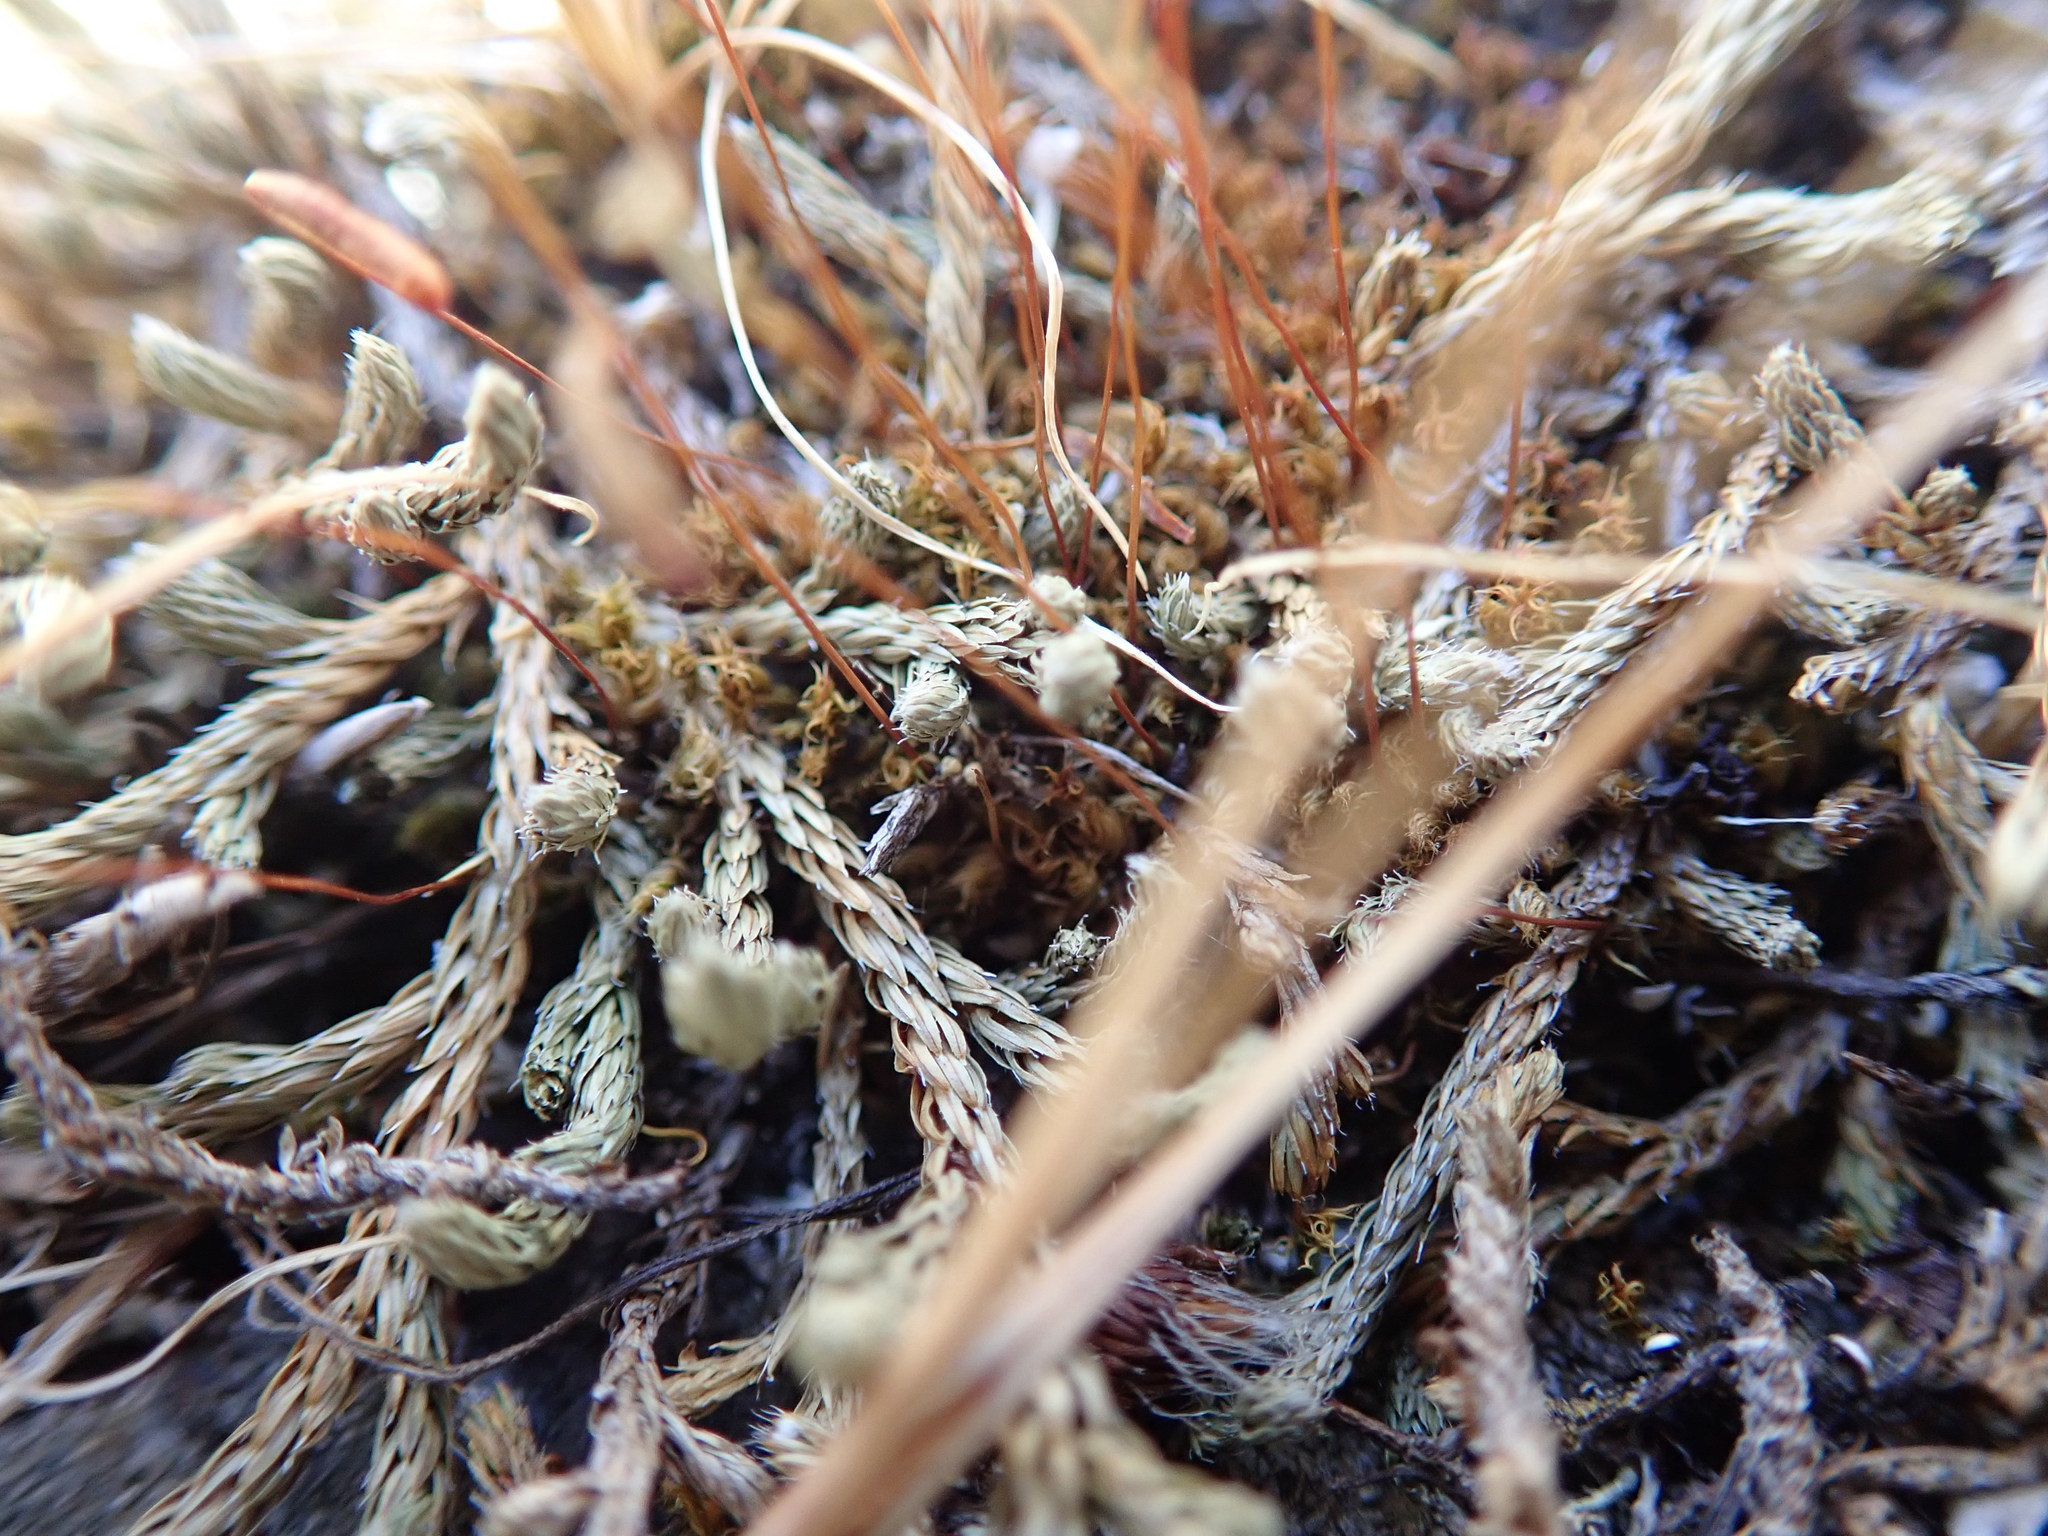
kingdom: Plantae
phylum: Tracheophyta
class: Lycopodiopsida
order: Selaginellales
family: Selaginellaceae
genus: Selaginella
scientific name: Selaginella wallacei
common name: Wallace's selaginella
